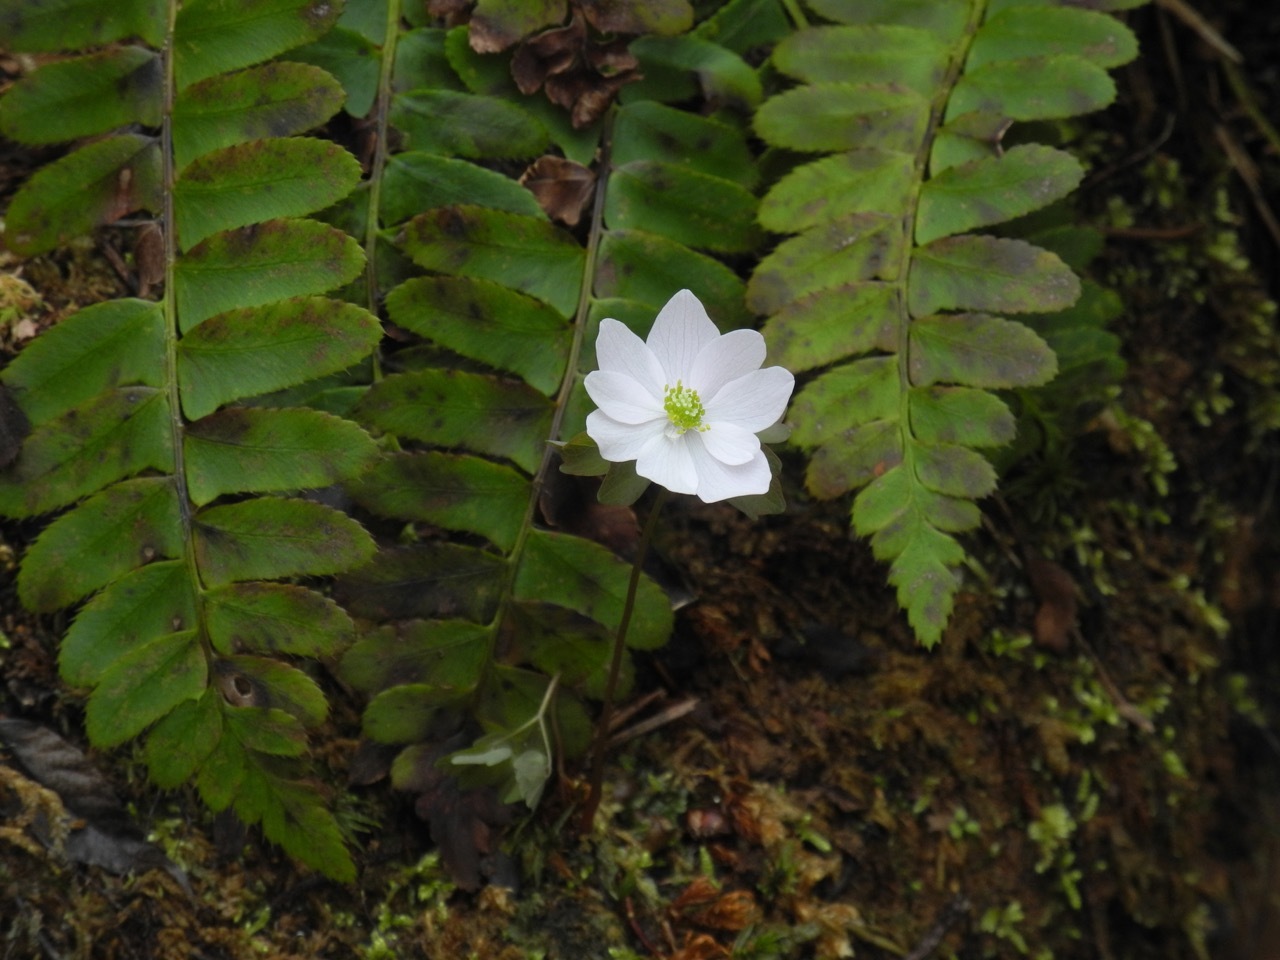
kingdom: Plantae
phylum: Tracheophyta
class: Magnoliopsida
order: Ranunculales
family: Ranunculaceae
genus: Thalictrum
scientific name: Thalictrum thalictroides
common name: Rue-anemone
